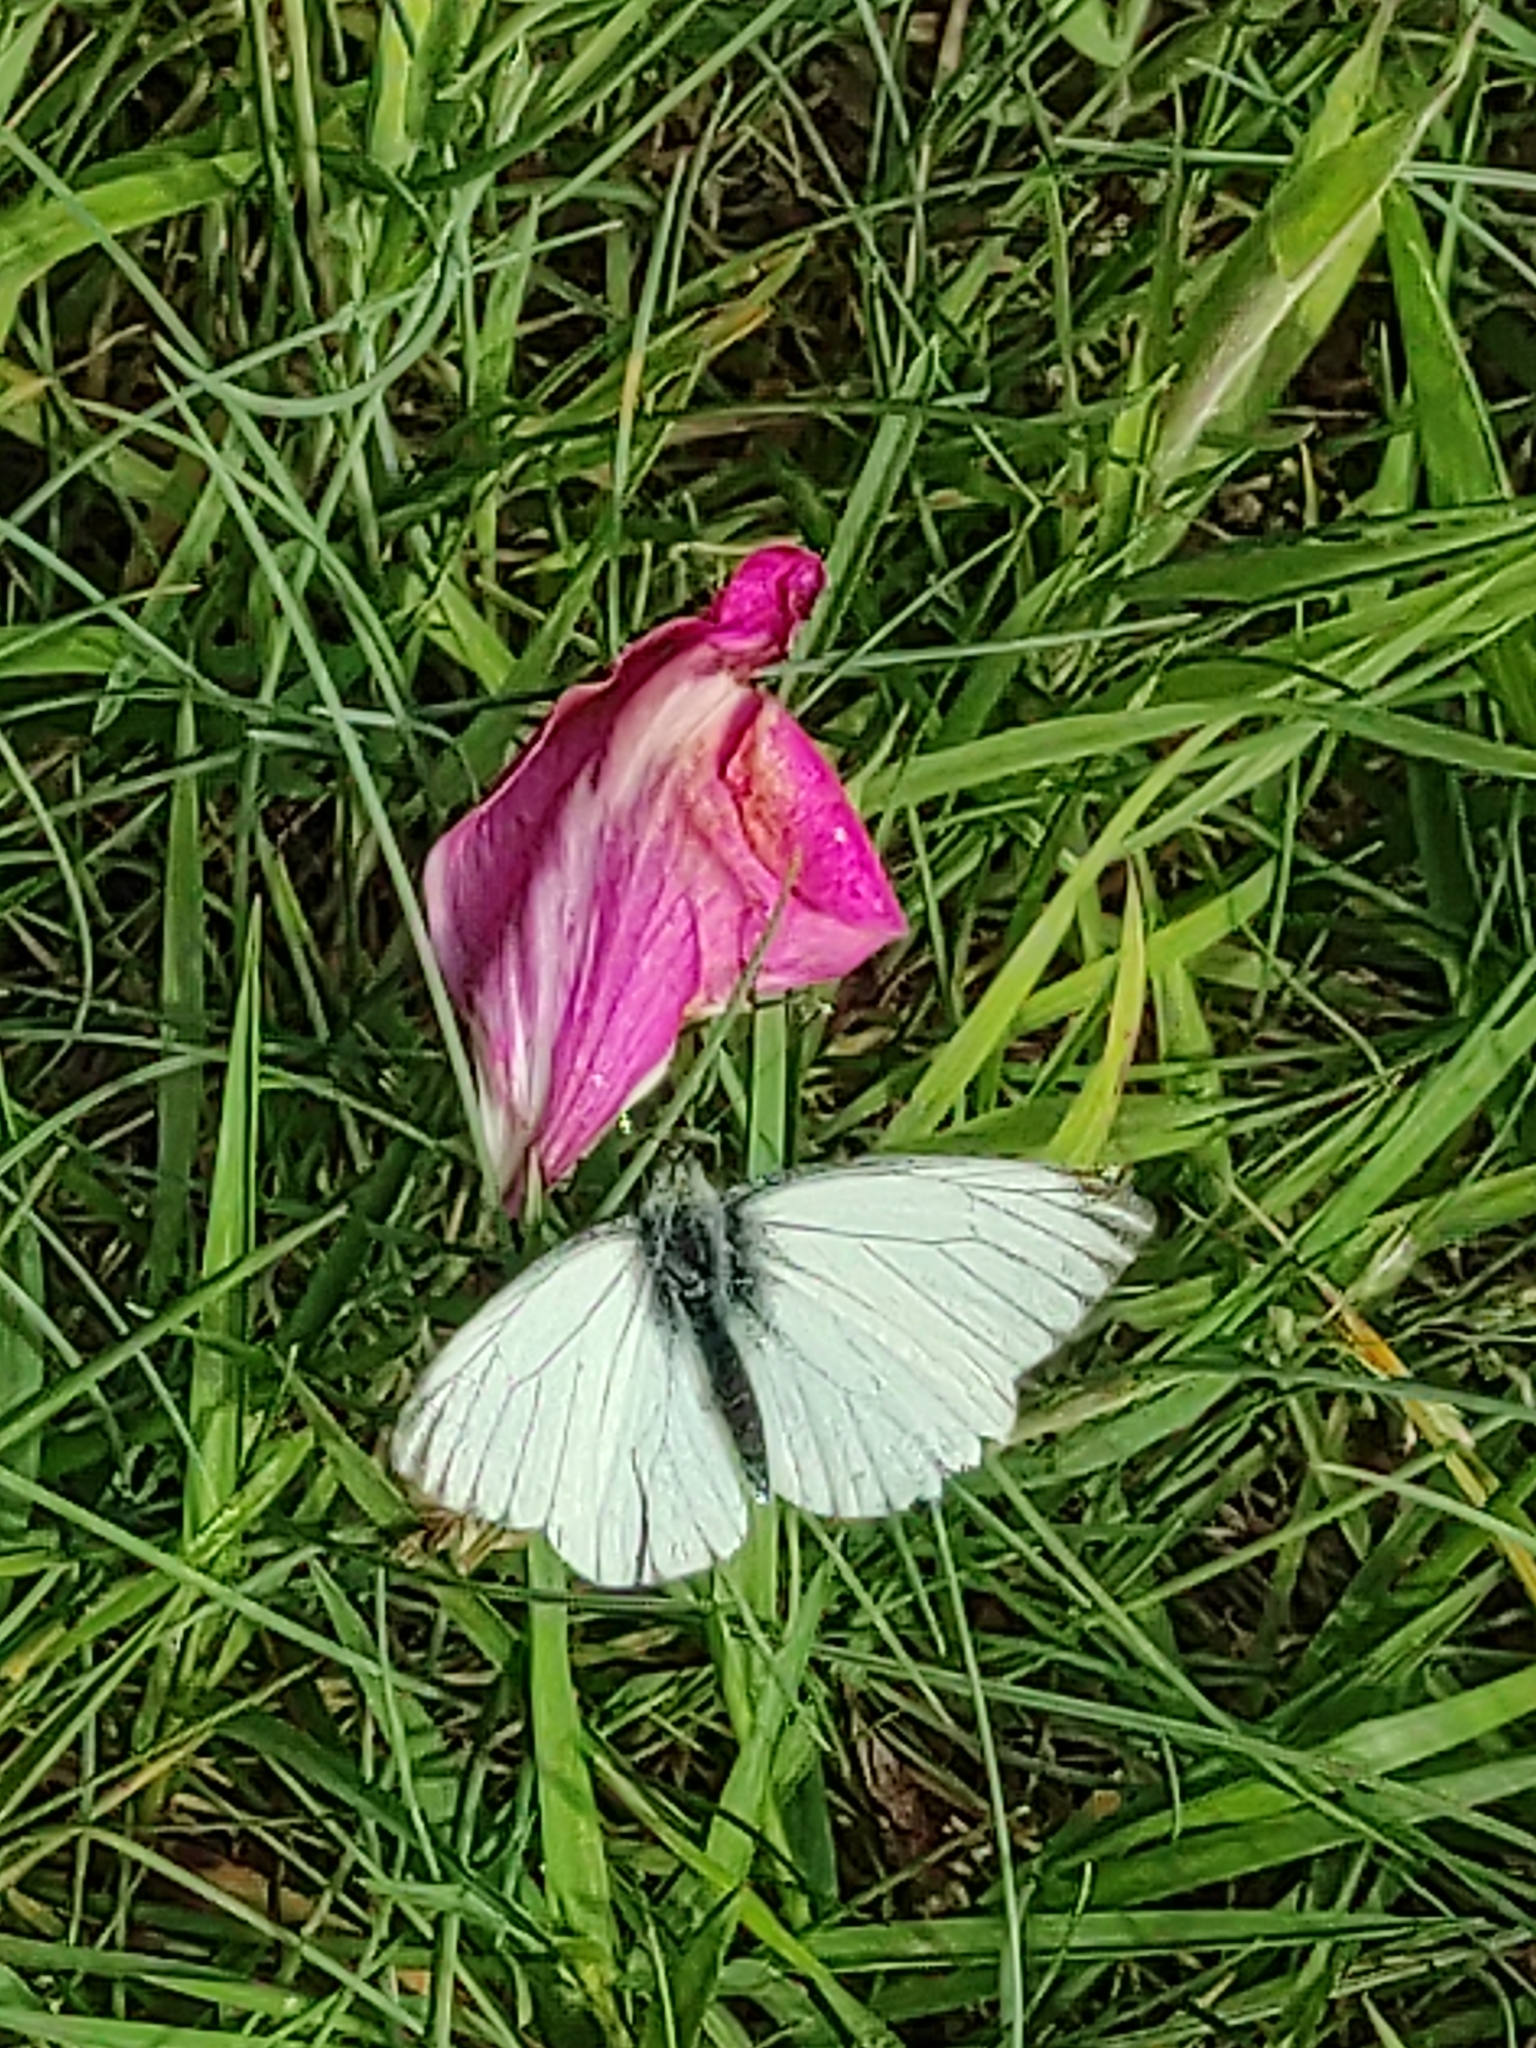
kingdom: Animalia
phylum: Arthropoda
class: Insecta
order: Lepidoptera
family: Pieridae
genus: Pieris
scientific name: Pieris napi
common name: Green-veined white
